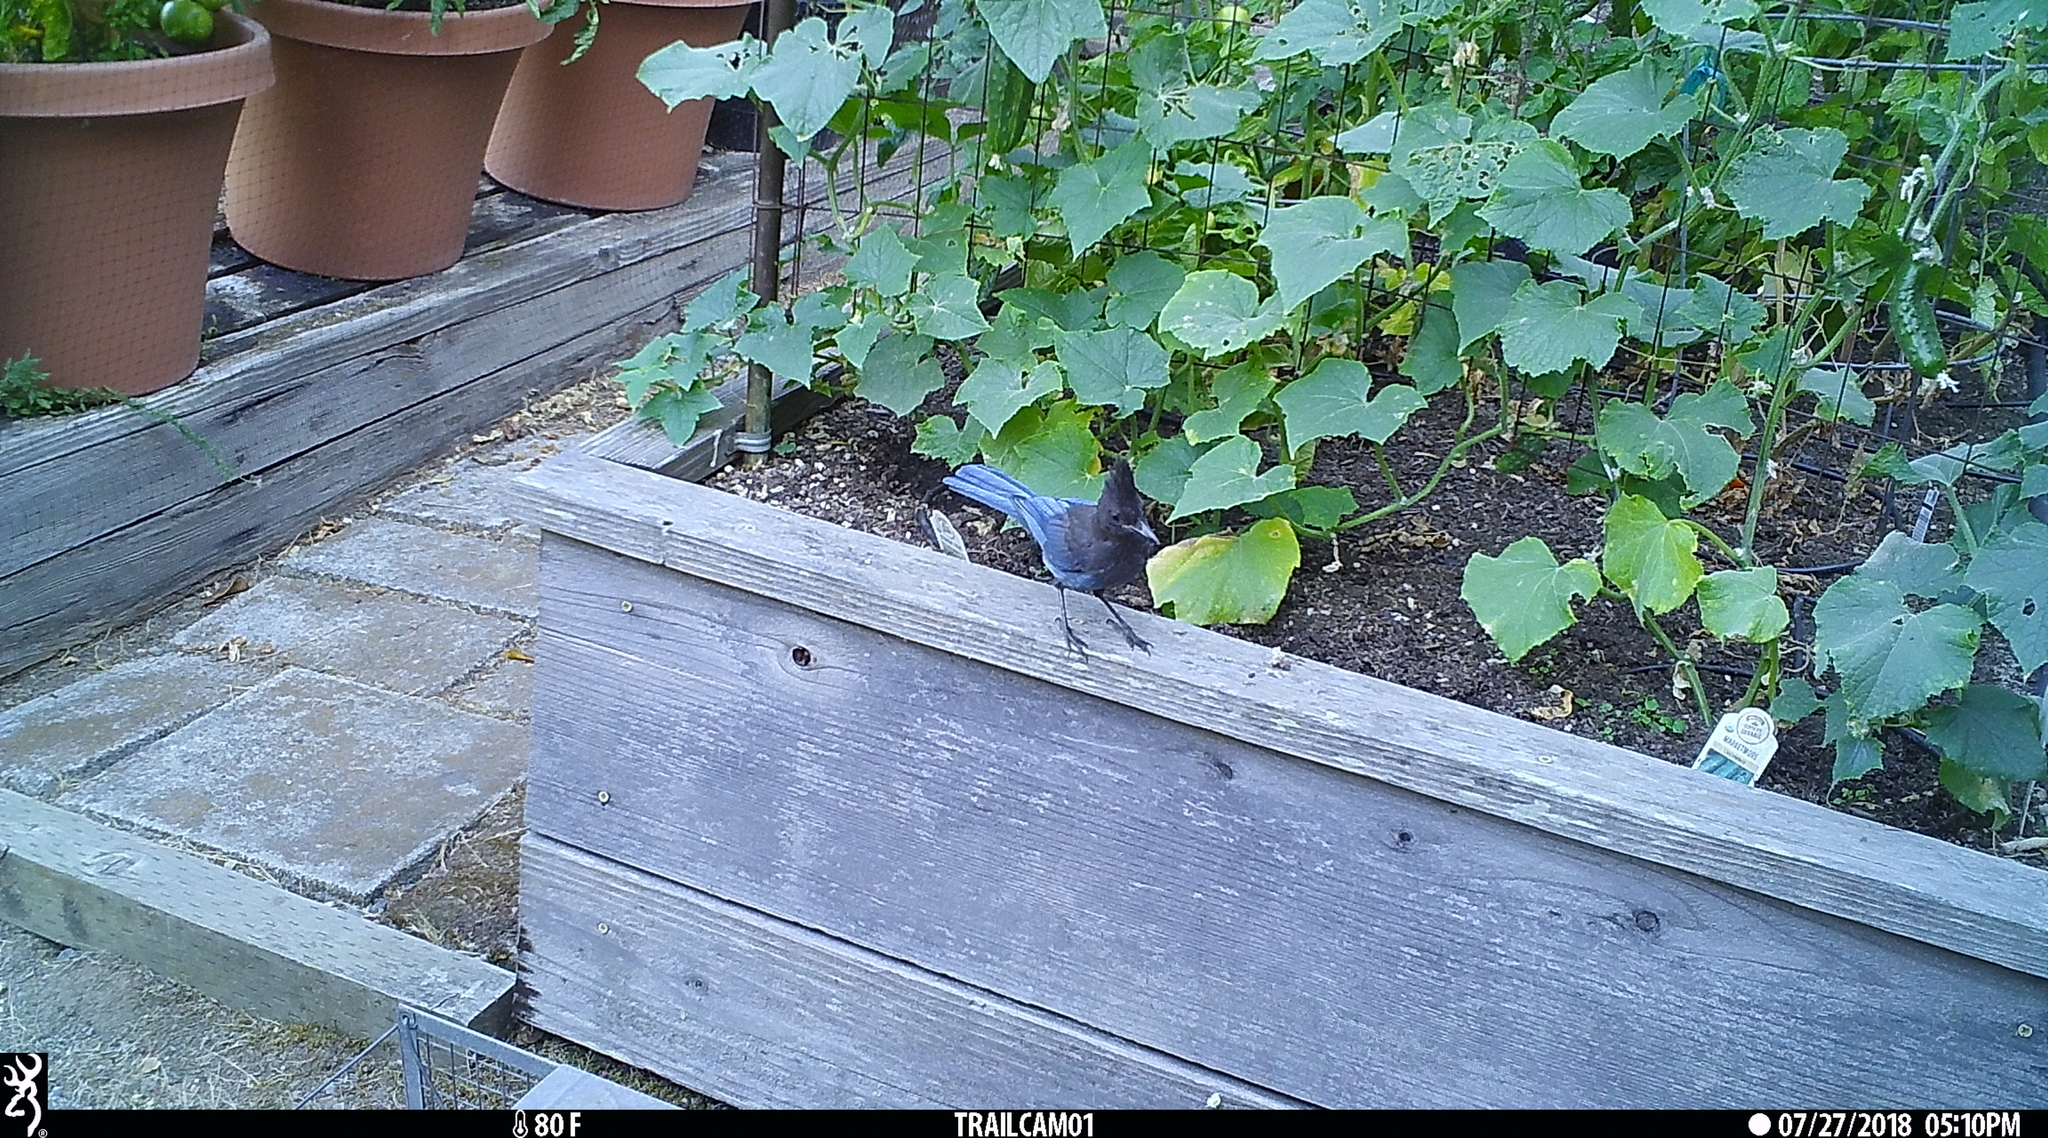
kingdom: Animalia
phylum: Chordata
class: Aves
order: Passeriformes
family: Corvidae
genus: Cyanocitta
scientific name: Cyanocitta stelleri
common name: Steller's jay
